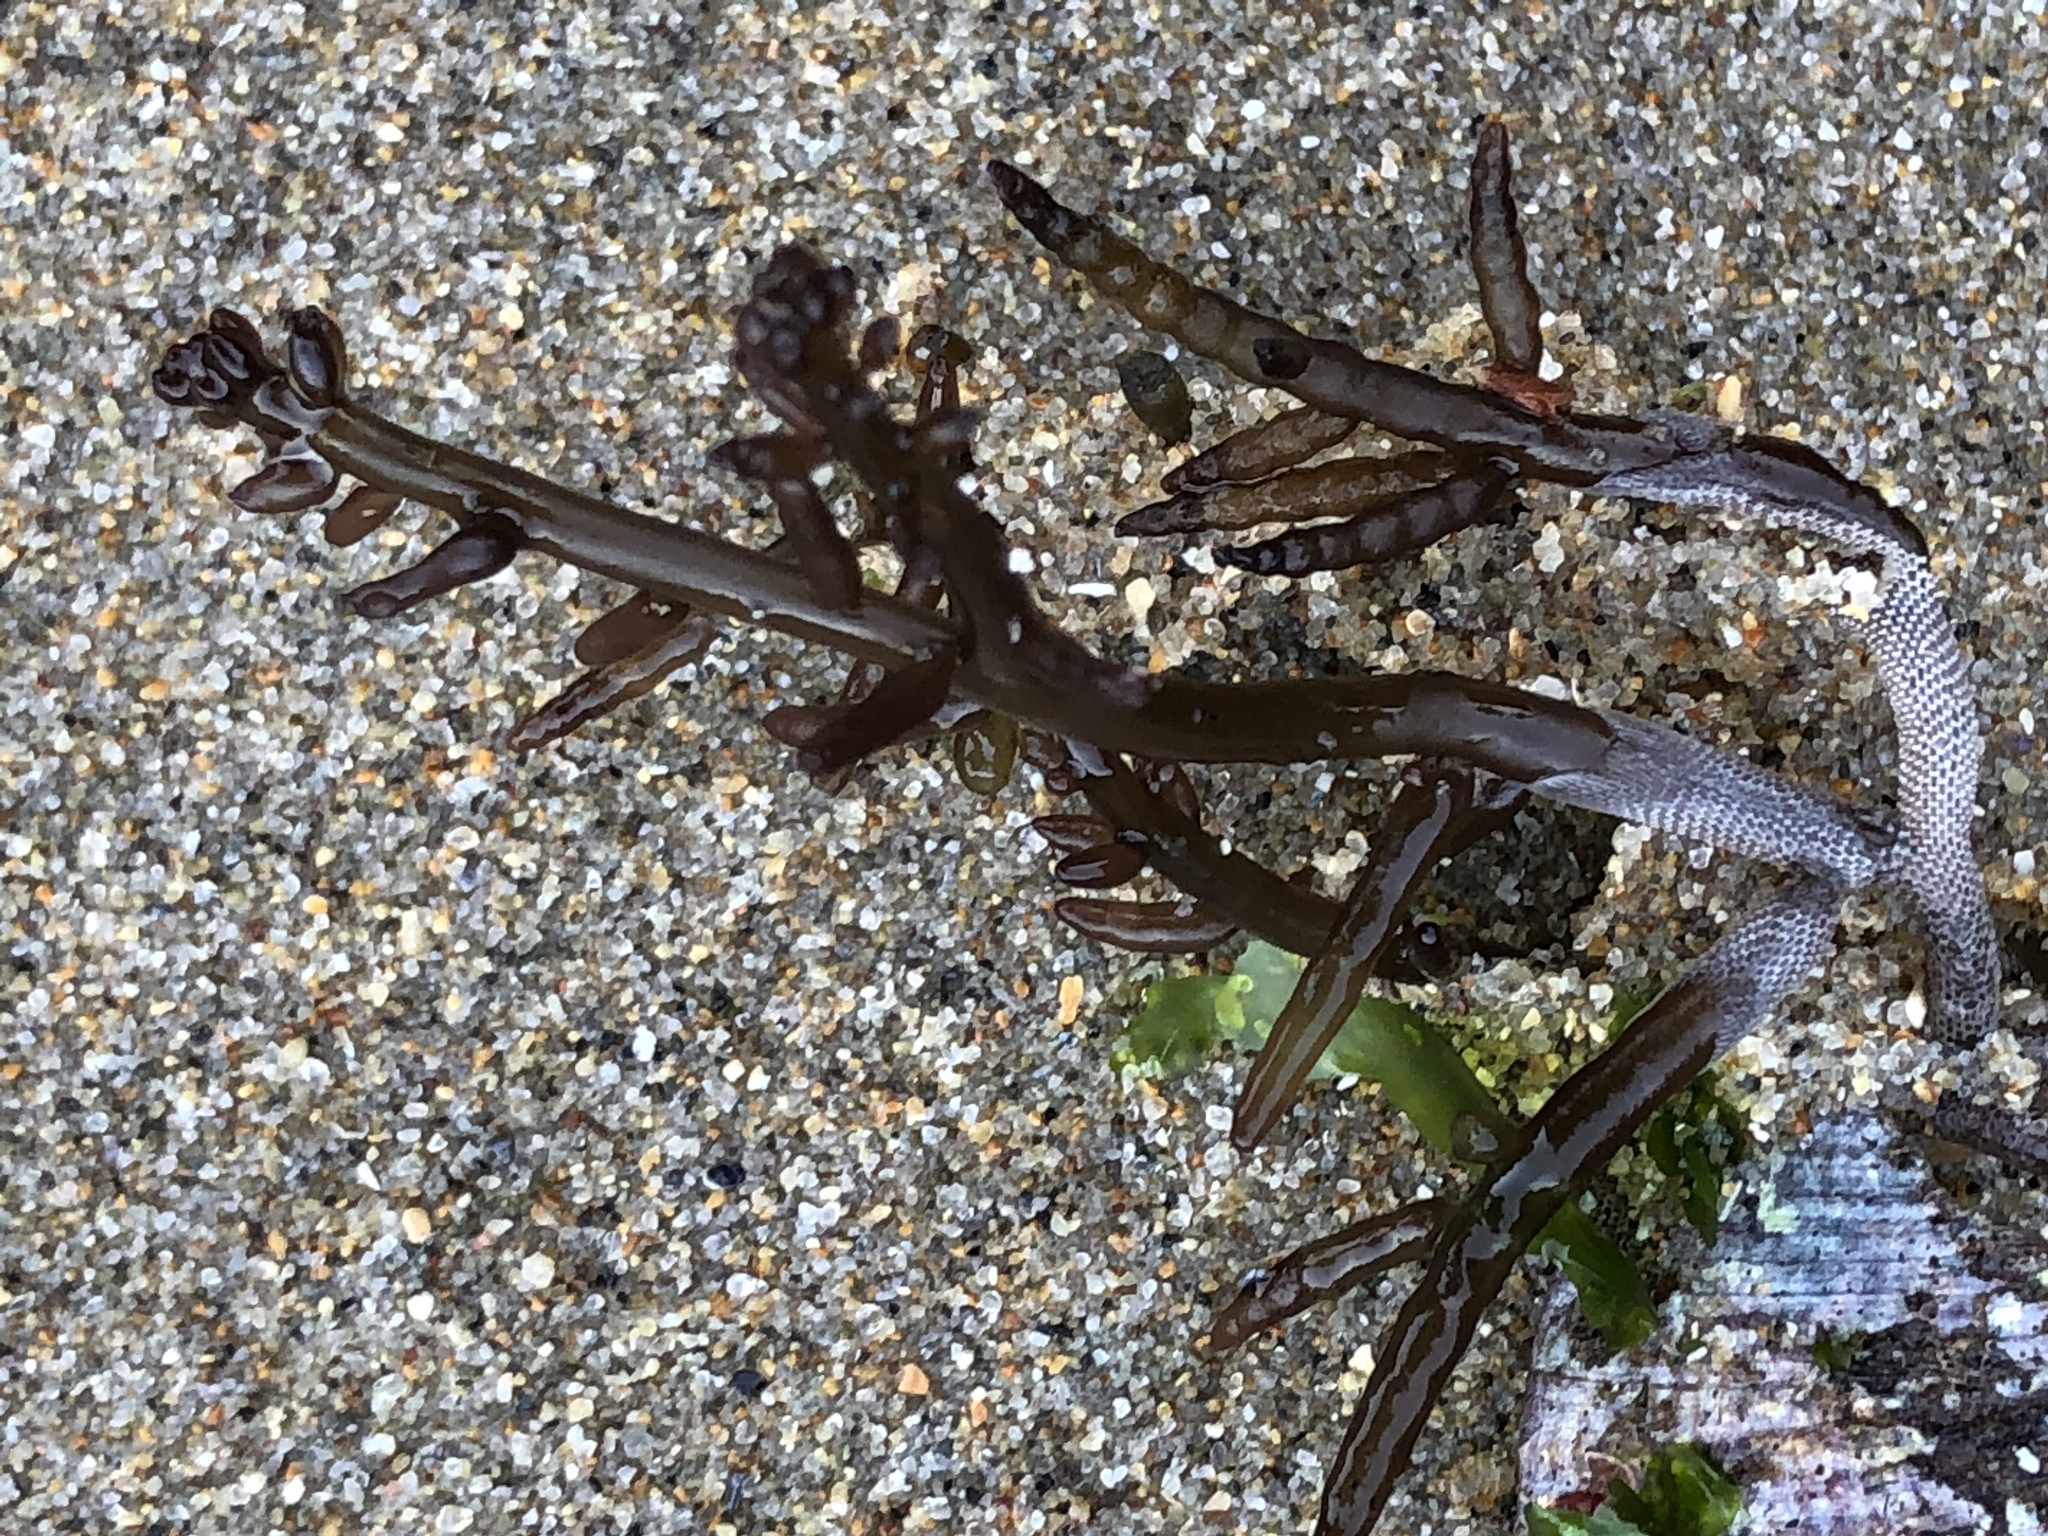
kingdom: Plantae
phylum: Rhodophyta
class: Florideophyceae
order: Rhodymeniales
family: Champiaceae
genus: Neogastroclonium
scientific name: Neogastroclonium subarticulatum
